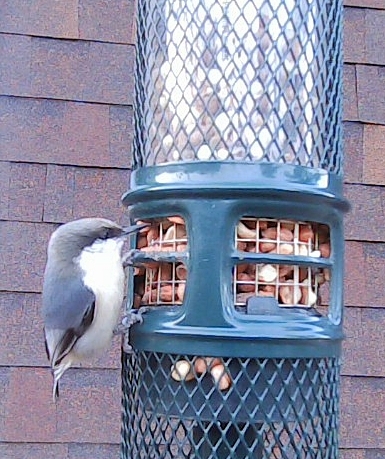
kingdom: Animalia
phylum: Chordata
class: Aves
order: Passeriformes
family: Sittidae
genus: Sitta
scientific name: Sitta pygmaea
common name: Pygmy nuthatch
